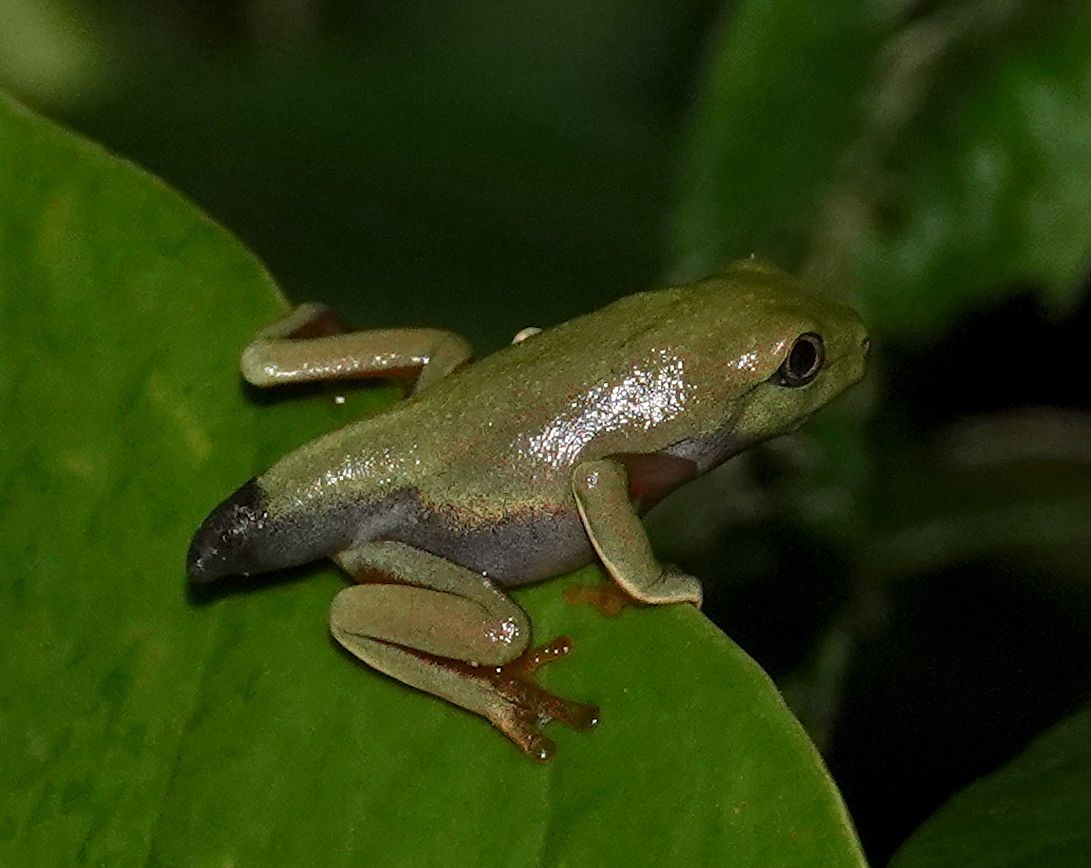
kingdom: Animalia
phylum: Chordata
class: Amphibia
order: Anura
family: Phyllomedusidae
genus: Agalychnis
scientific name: Agalychnis annae
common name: Blue-sided treefrog
